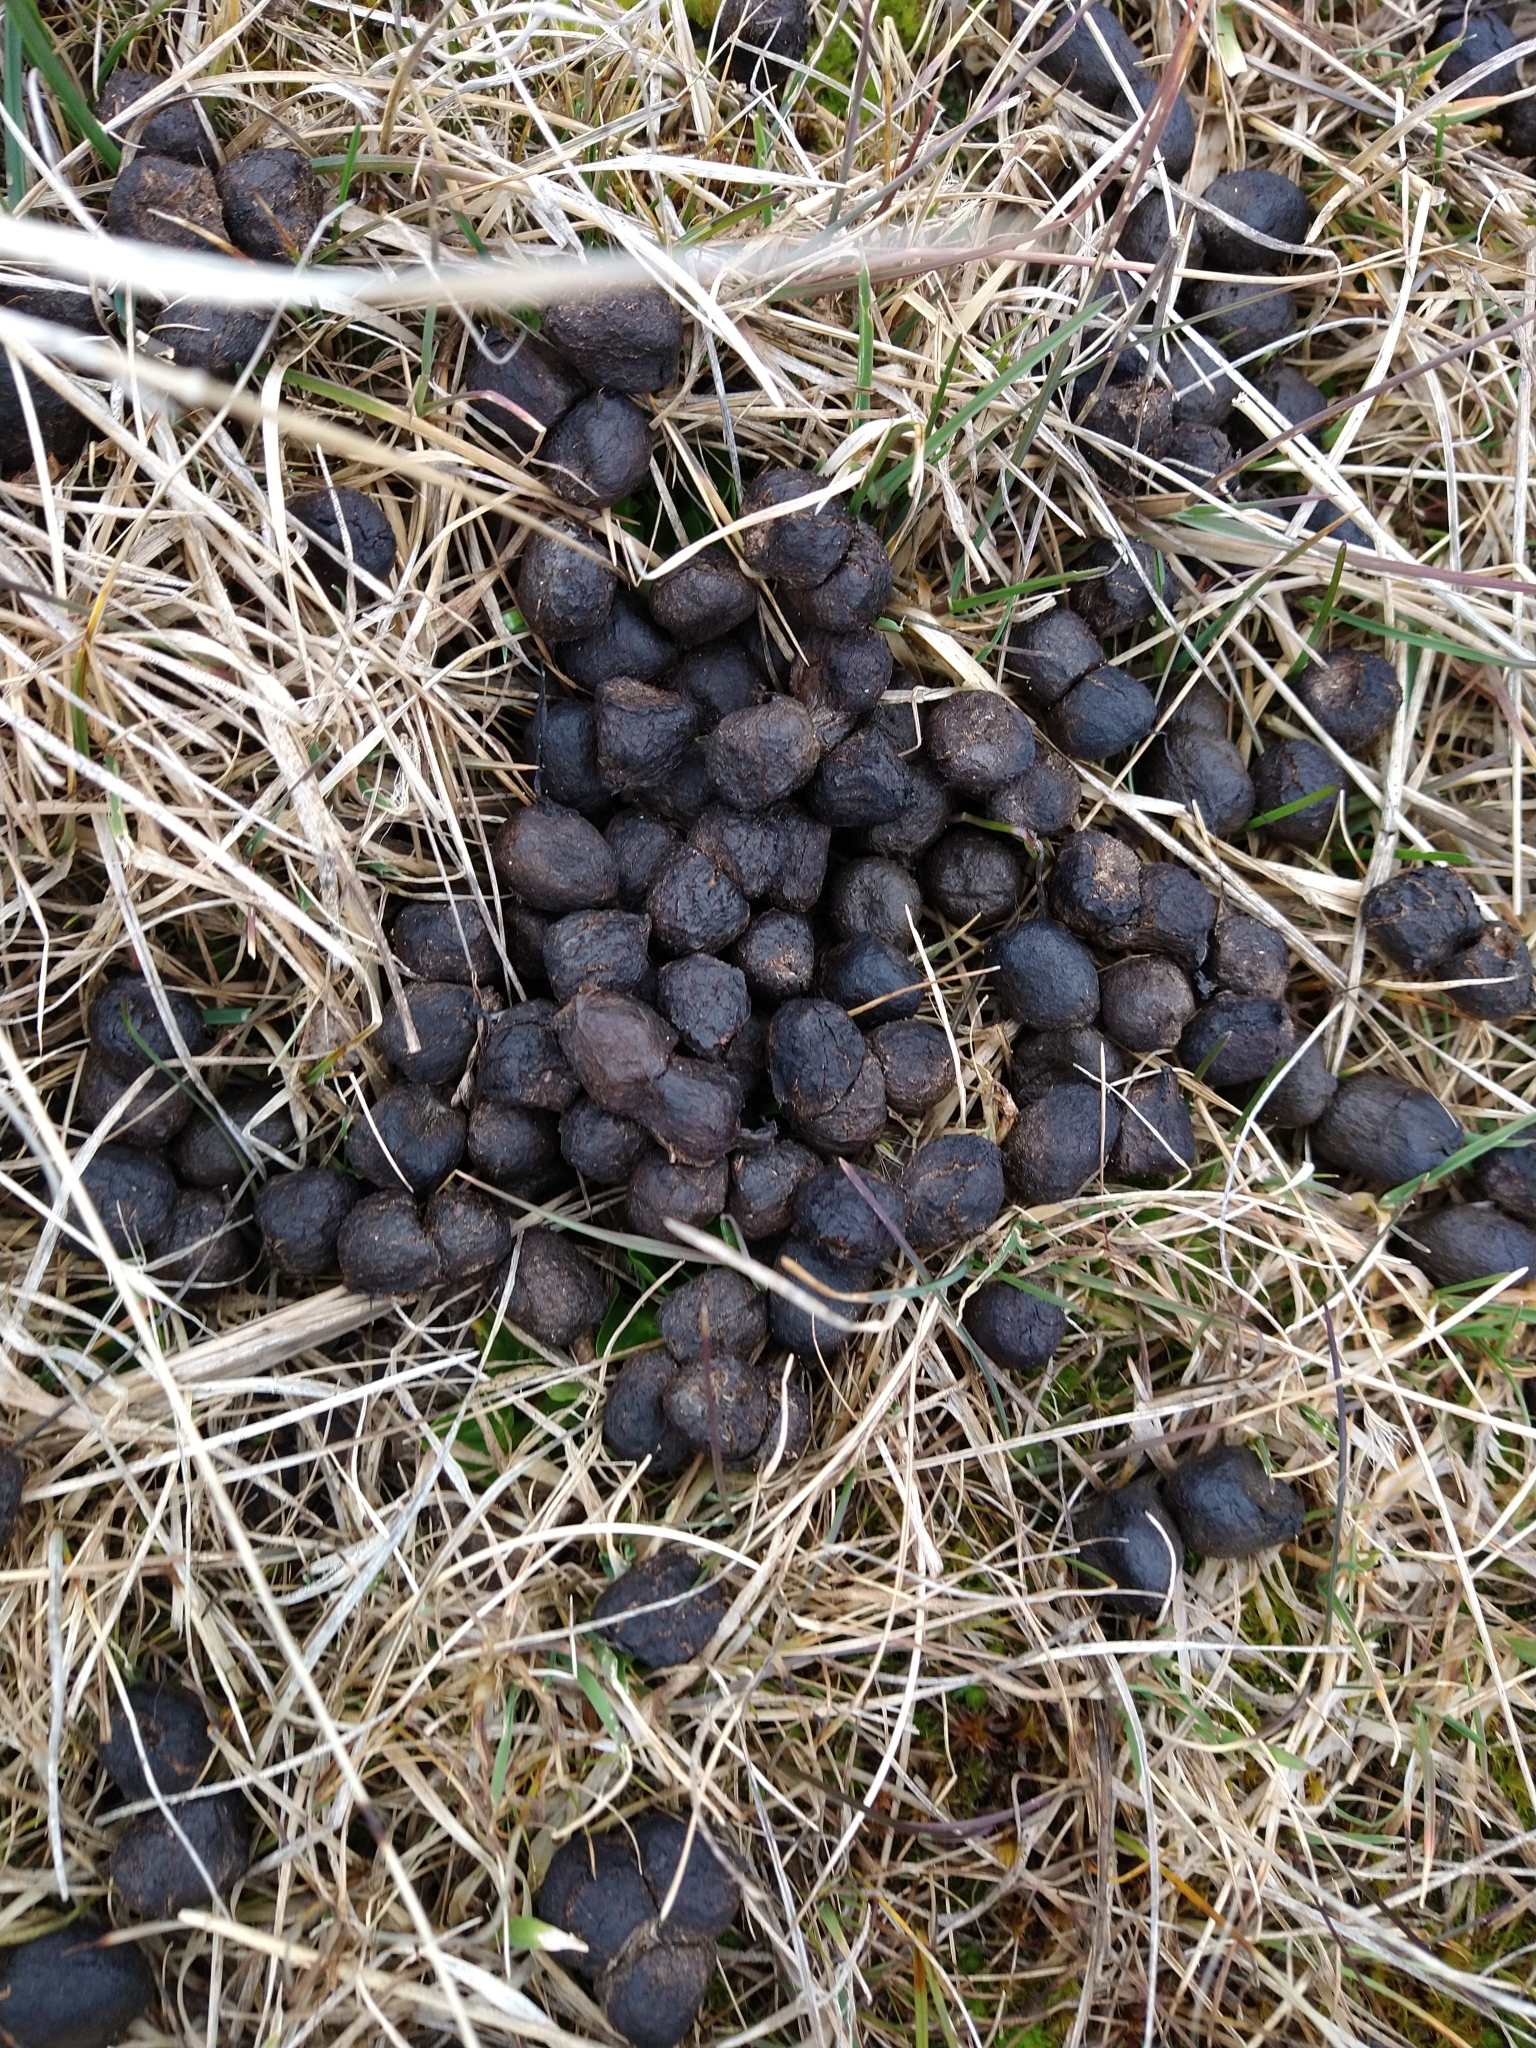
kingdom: Animalia
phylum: Chordata
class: Mammalia
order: Artiodactyla
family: Camelidae
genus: Lama
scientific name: Lama glama
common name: Llama
